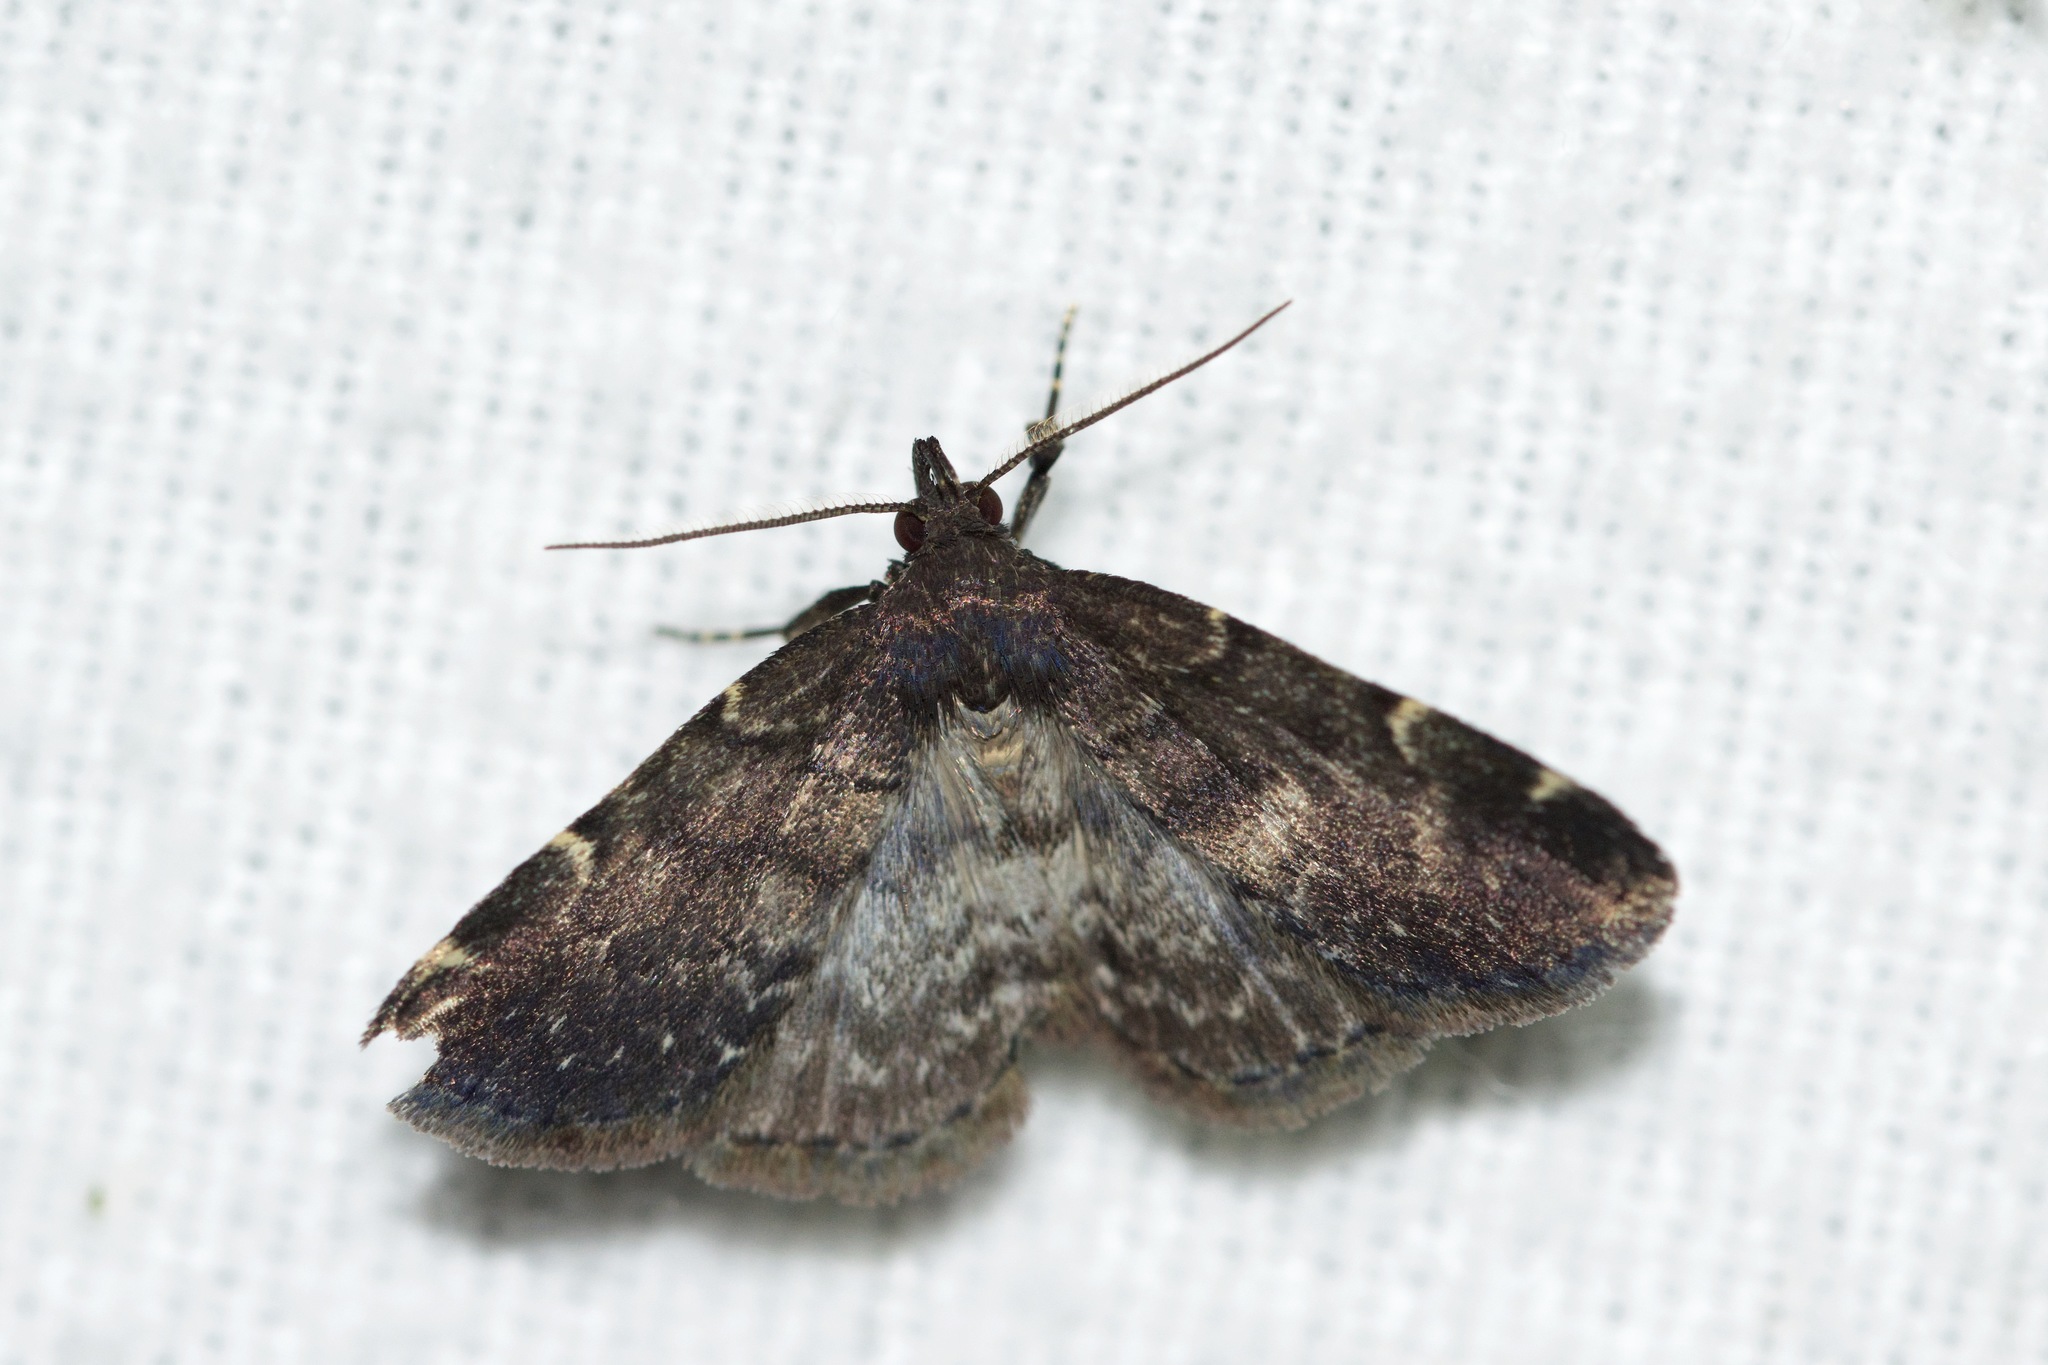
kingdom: Animalia
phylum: Arthropoda
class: Insecta
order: Lepidoptera
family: Erebidae
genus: Idia
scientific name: Idia forbesii
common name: Forbes' idia moth
